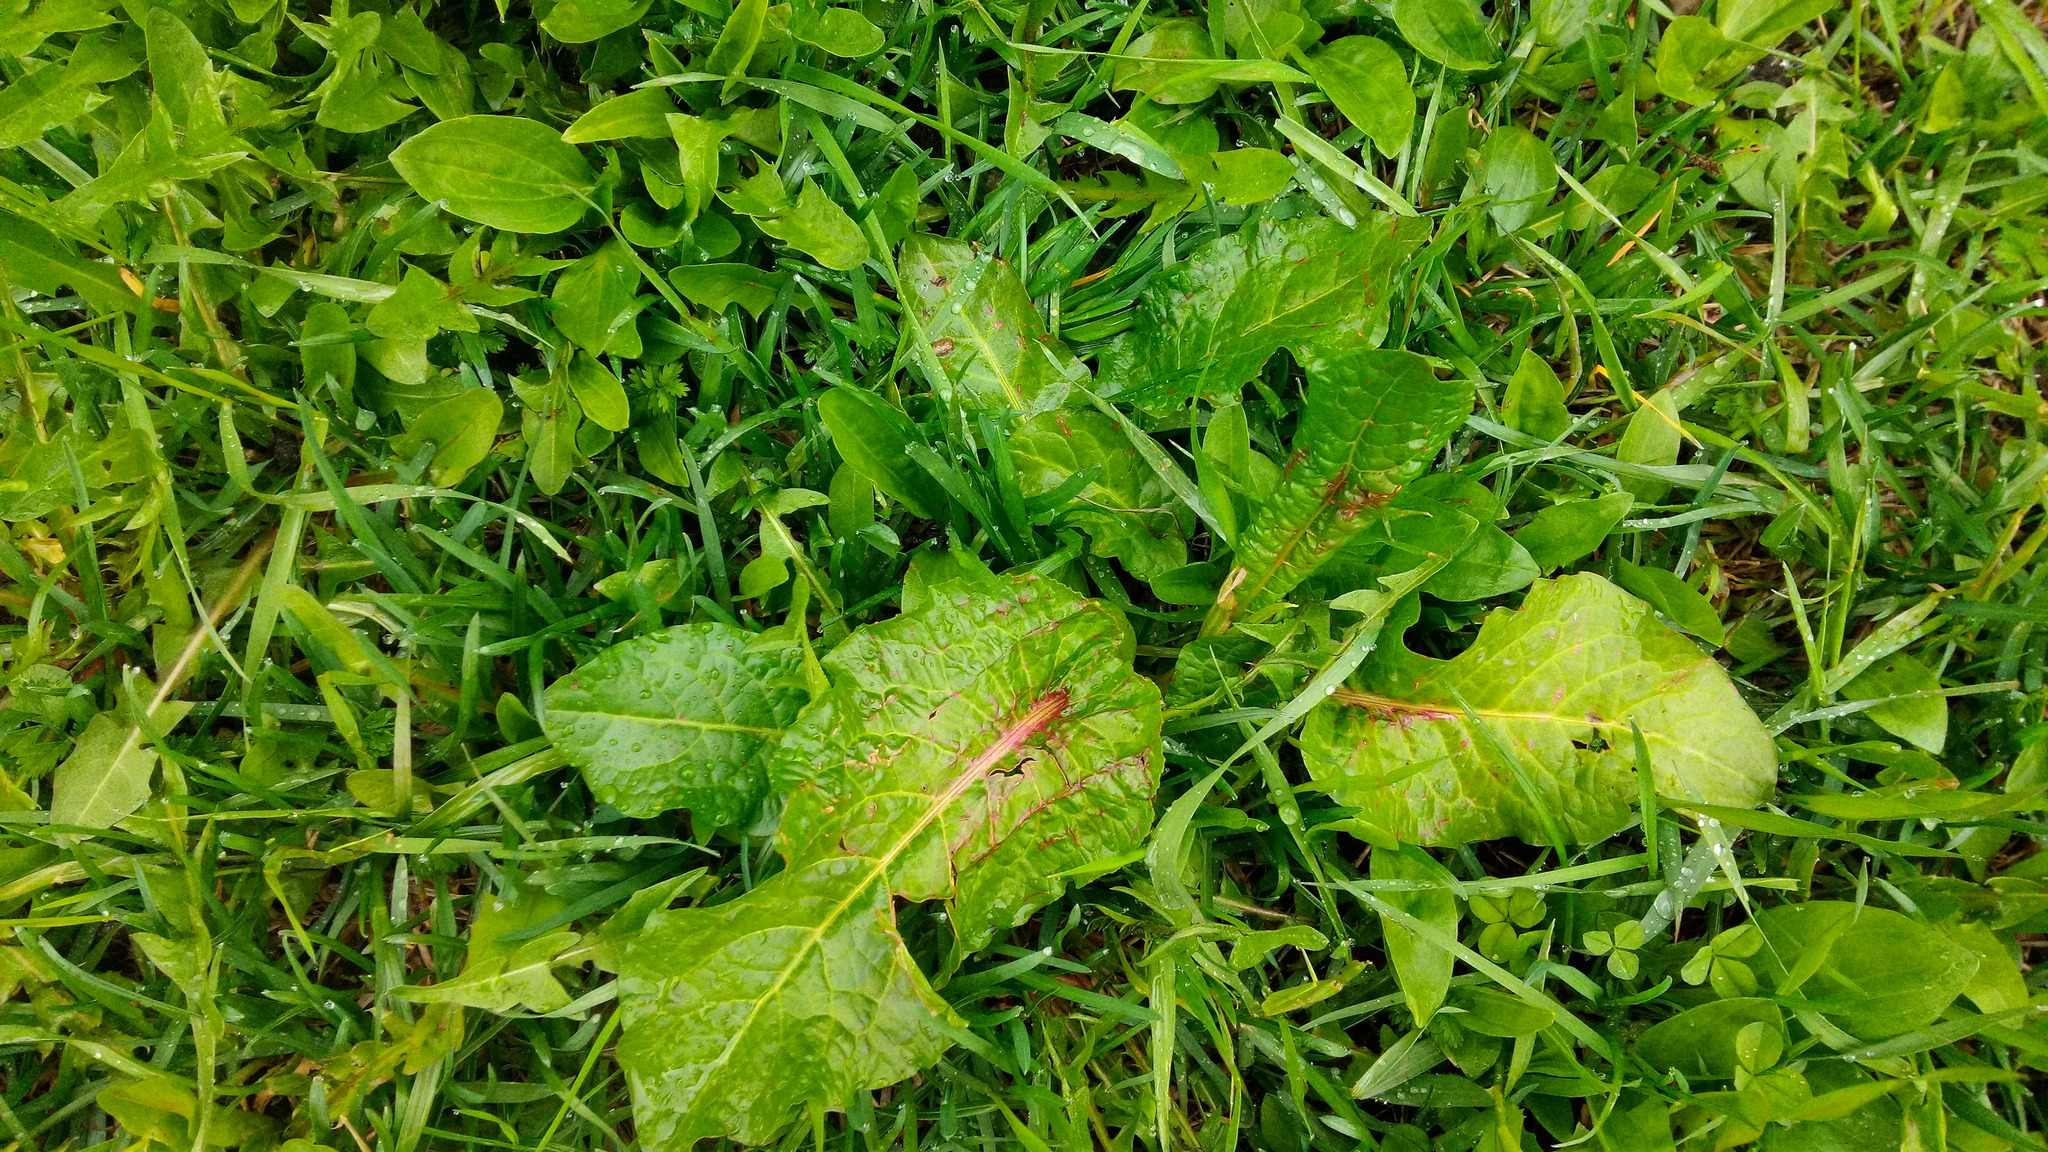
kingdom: Plantae
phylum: Tracheophyta
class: Magnoliopsida
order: Caryophyllales
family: Polygonaceae
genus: Rumex
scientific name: Rumex obtusifolius
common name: Bitter dock
